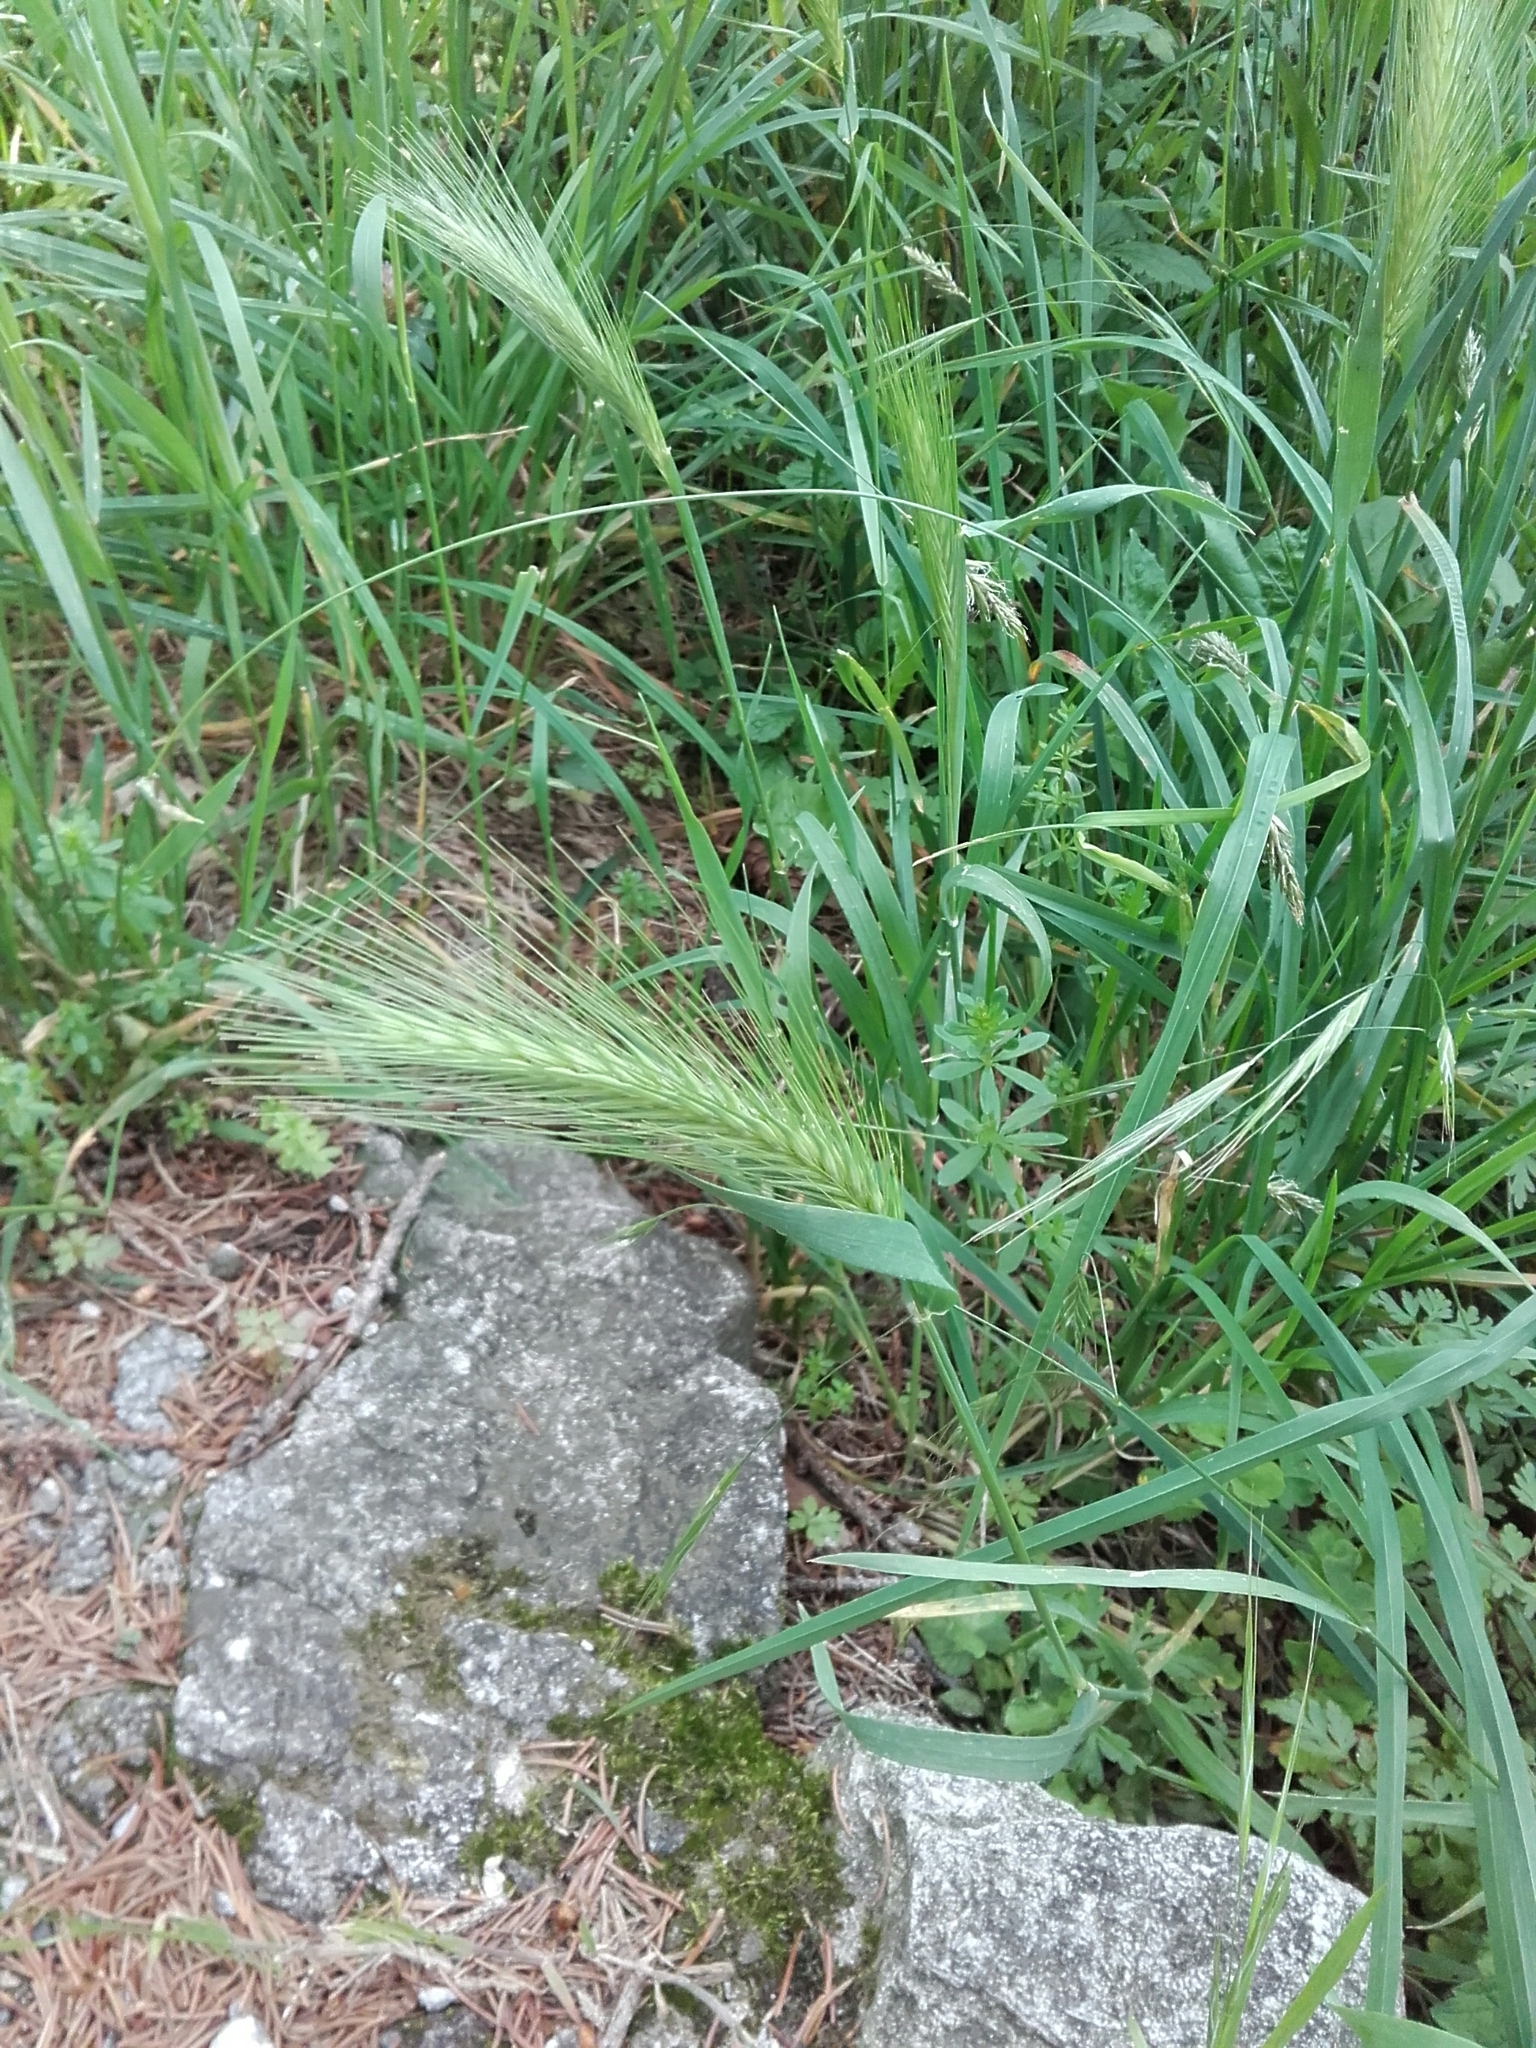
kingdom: Plantae
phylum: Tracheophyta
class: Liliopsida
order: Poales
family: Poaceae
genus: Hordeum
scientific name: Hordeum murinum
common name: Wall barley
